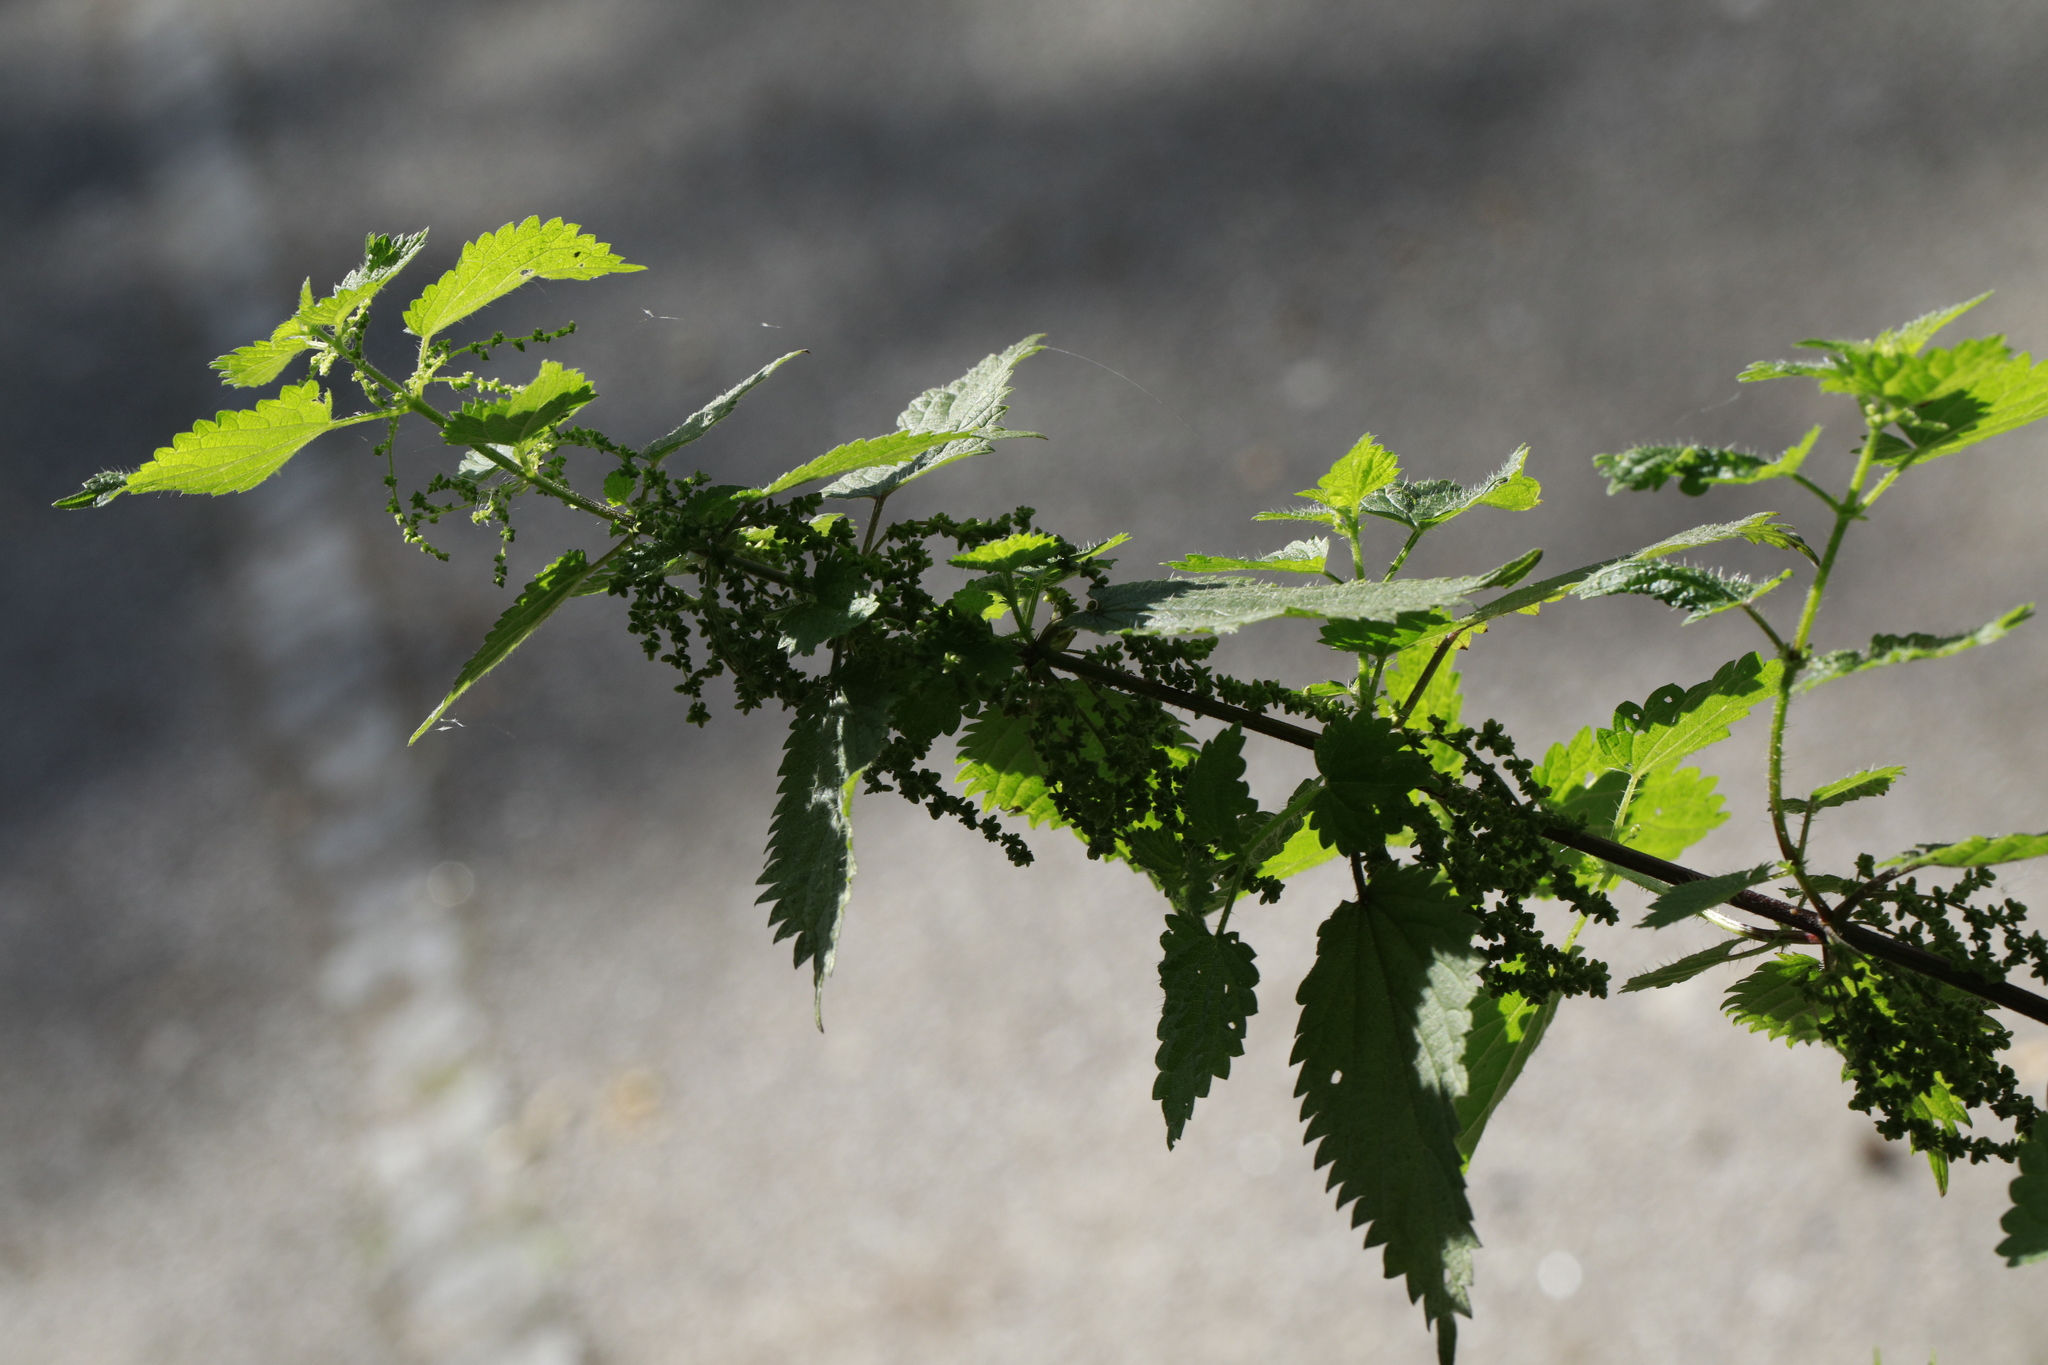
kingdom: Plantae
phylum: Tracheophyta
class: Magnoliopsida
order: Rosales
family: Urticaceae
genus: Urtica
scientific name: Urtica dioica
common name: Common nettle
